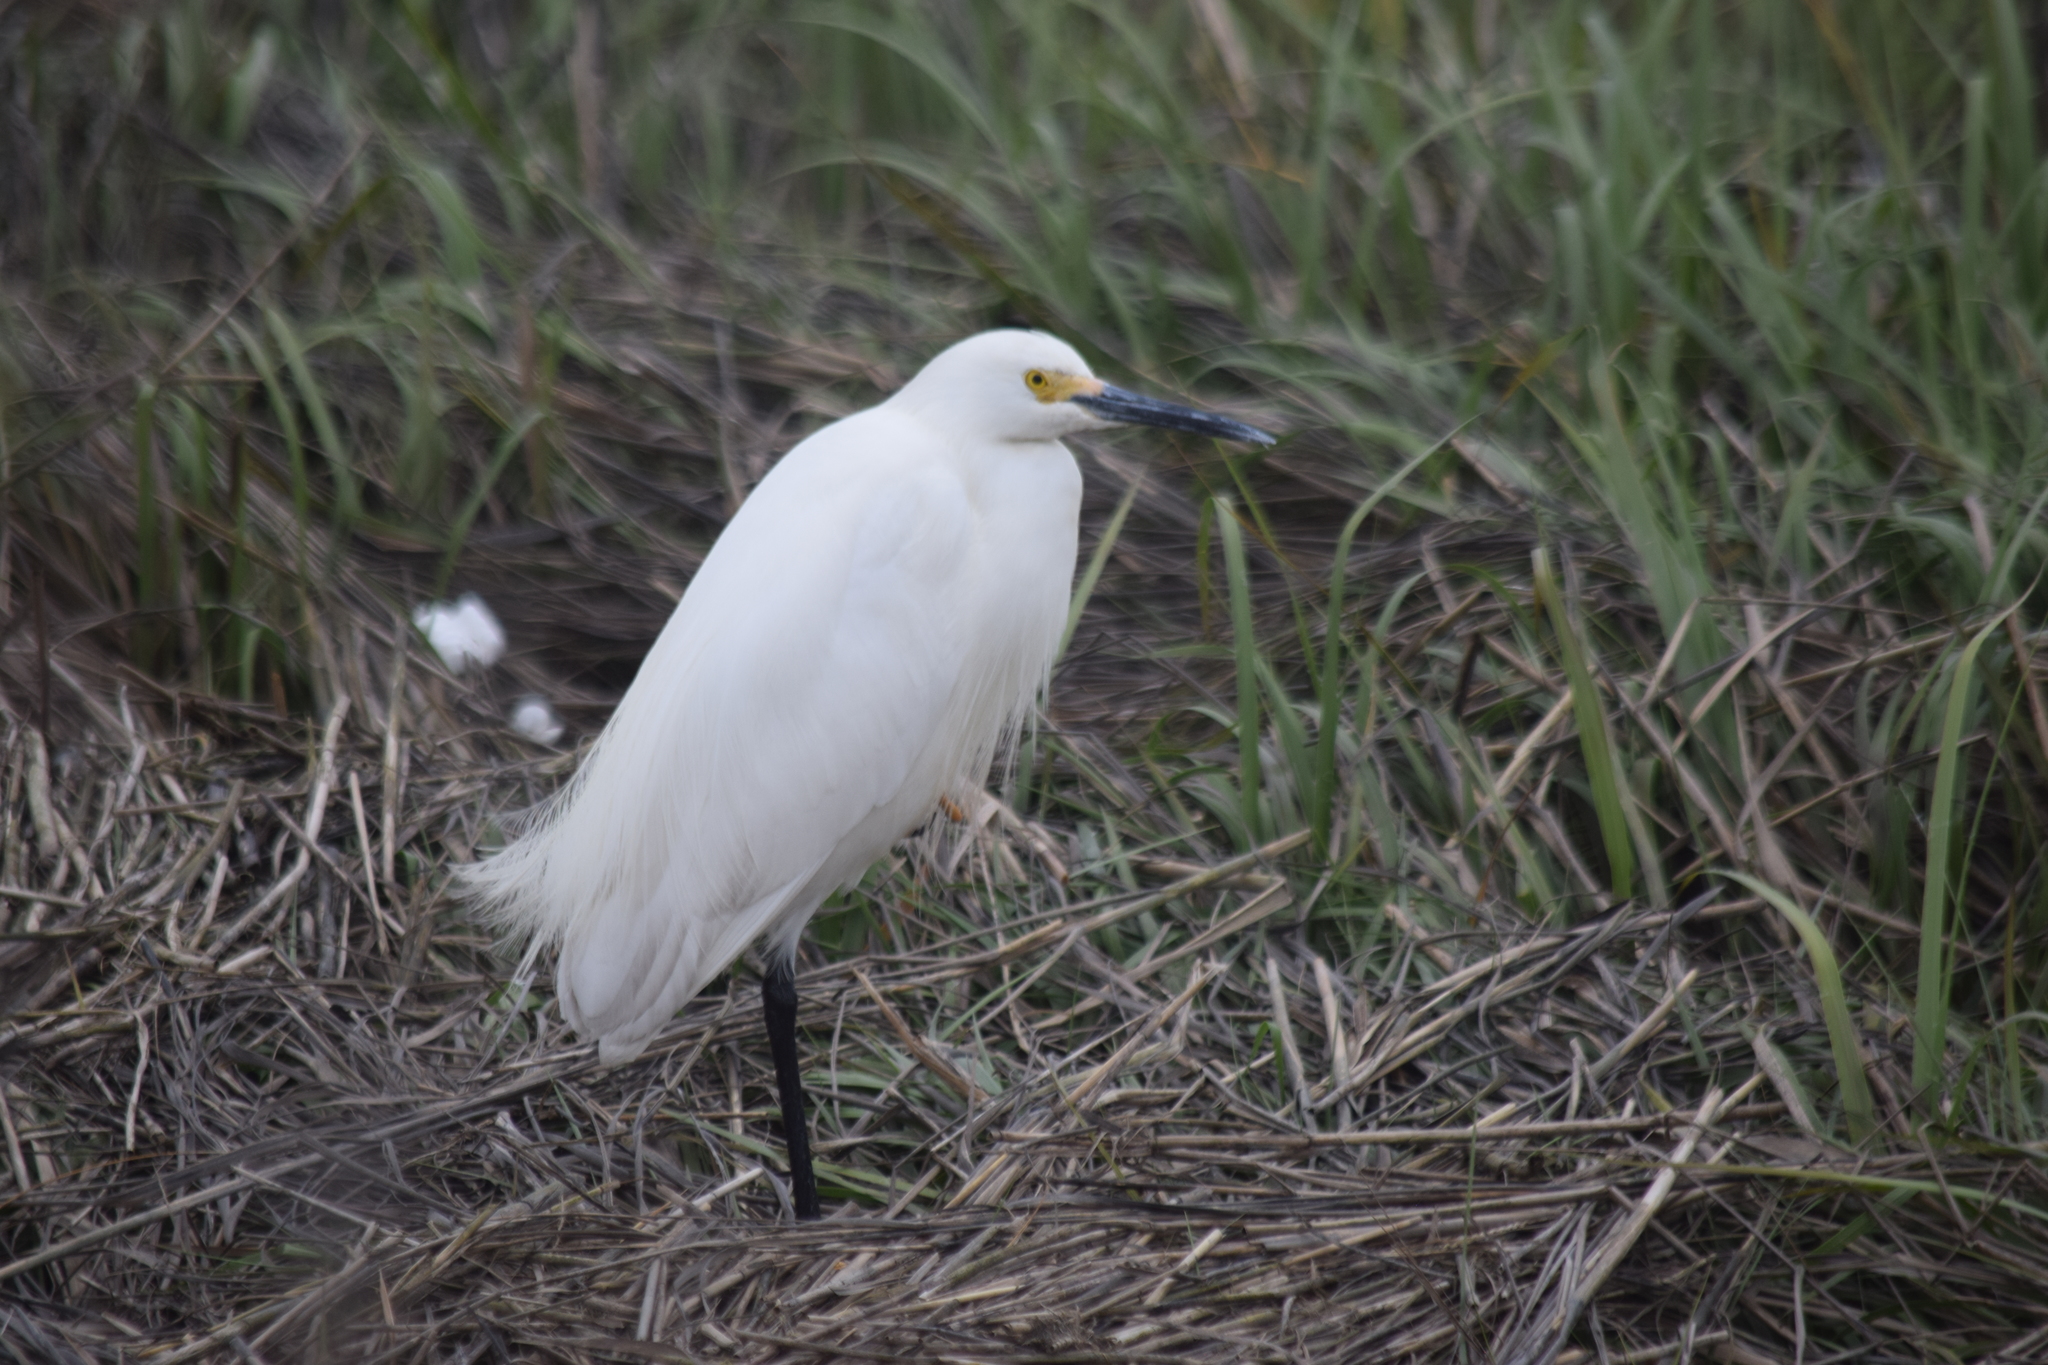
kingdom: Animalia
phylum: Chordata
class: Aves
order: Pelecaniformes
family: Ardeidae
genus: Egretta
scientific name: Egretta thula
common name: Snowy egret
